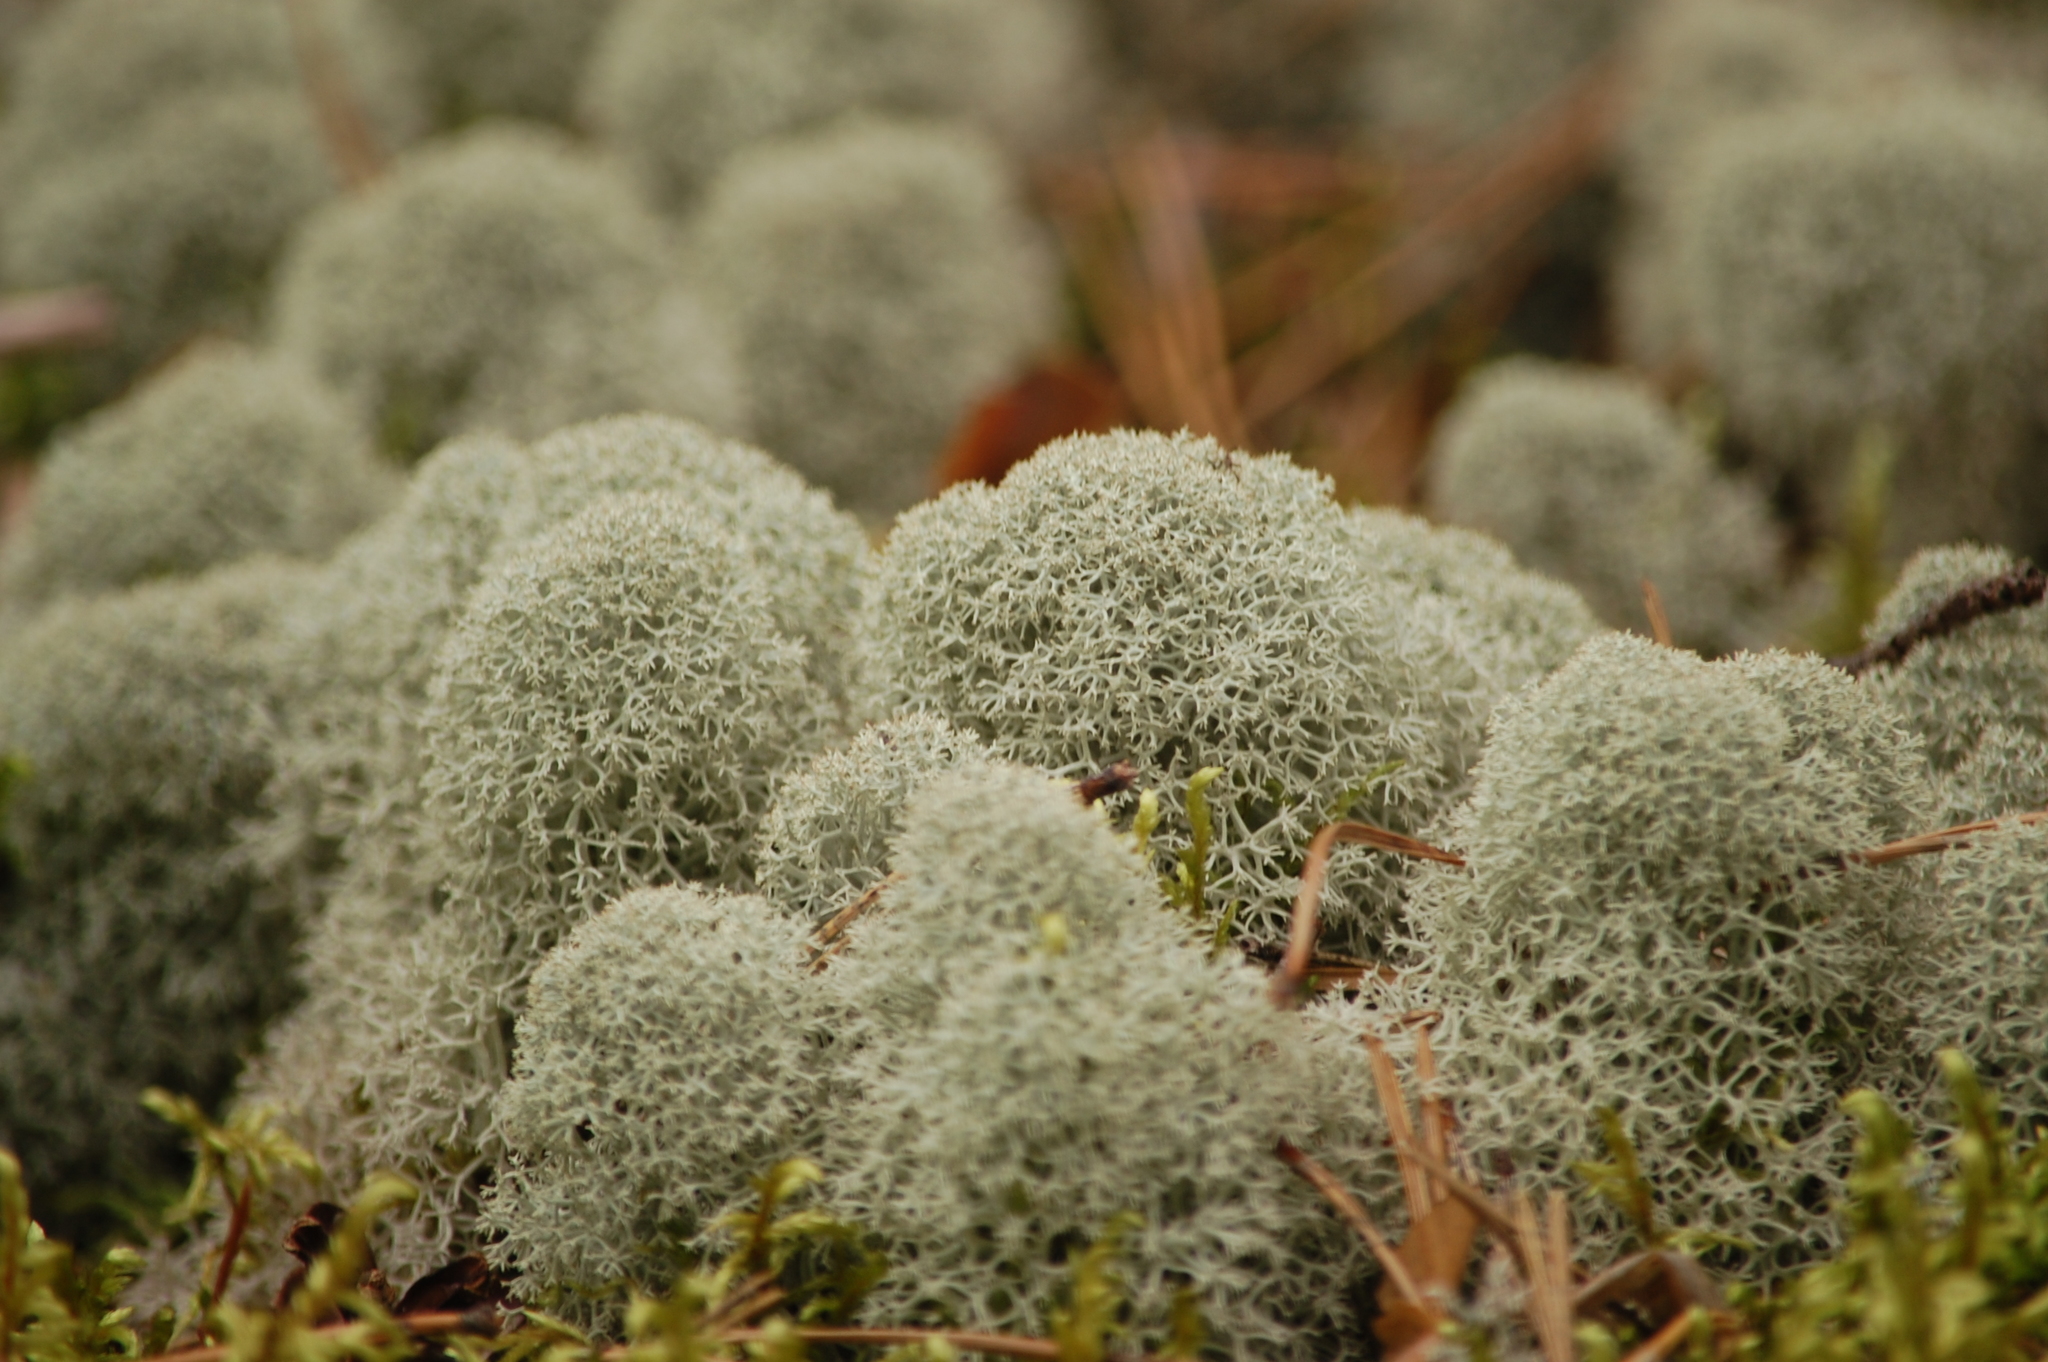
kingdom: Fungi
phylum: Ascomycota
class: Lecanoromycetes
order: Lecanorales
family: Cladoniaceae
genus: Cladonia
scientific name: Cladonia stellaris
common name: Star-tipped reindeer lichen
